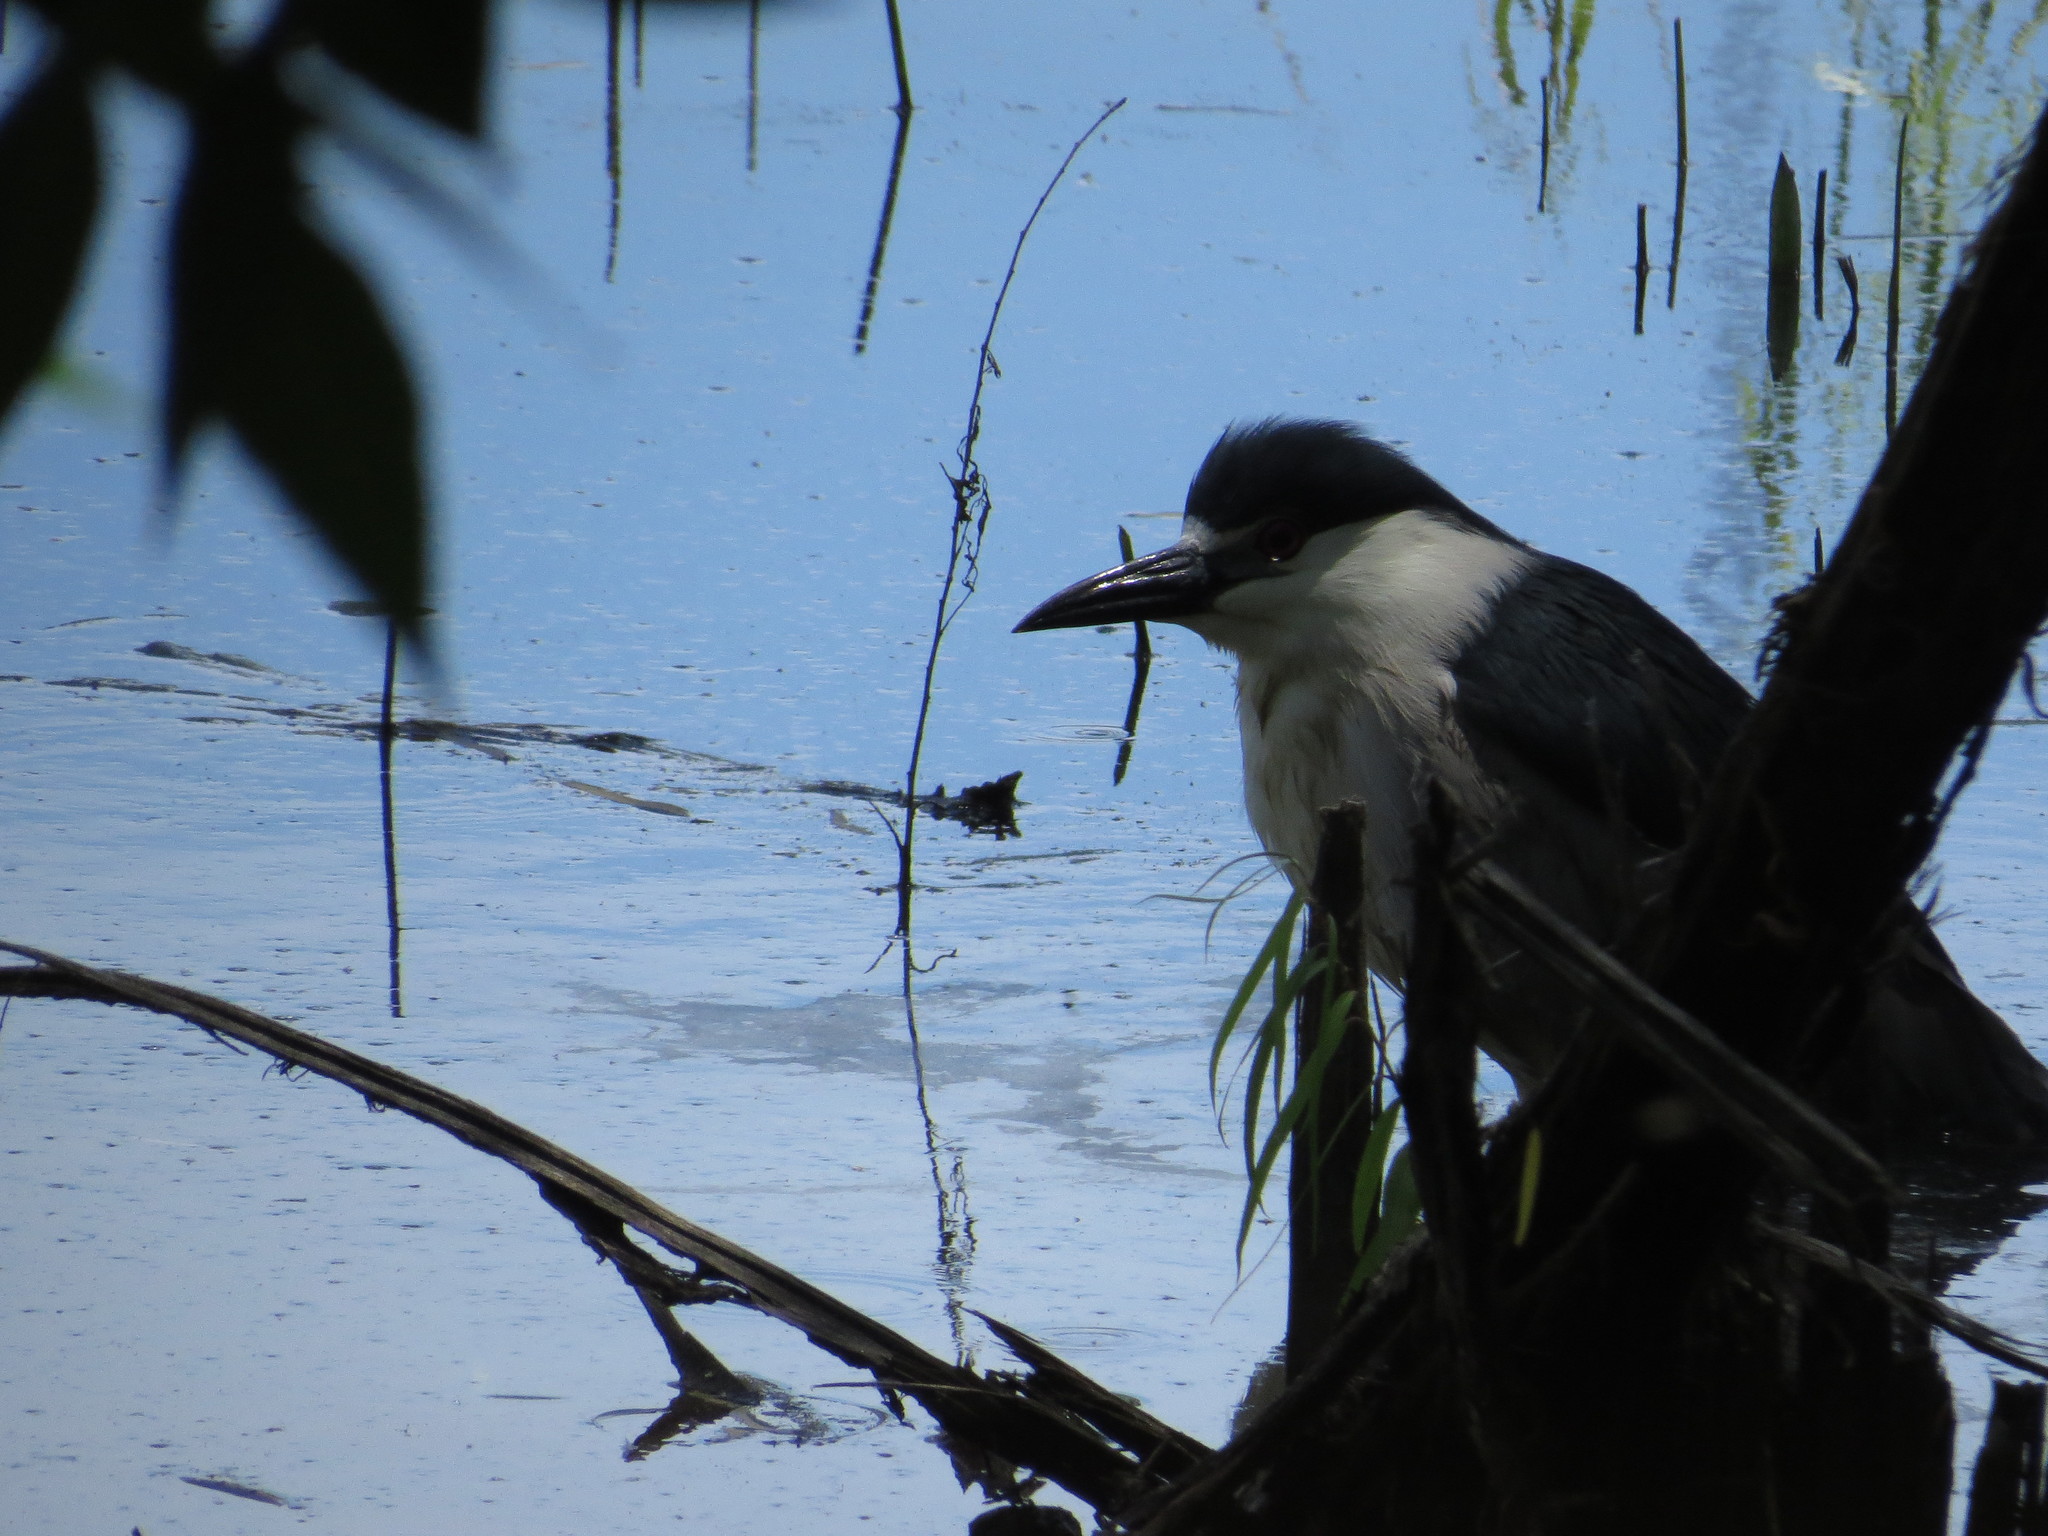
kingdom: Animalia
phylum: Chordata
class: Aves
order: Pelecaniformes
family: Ardeidae
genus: Nycticorax
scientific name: Nycticorax nycticorax
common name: Black-crowned night heron
